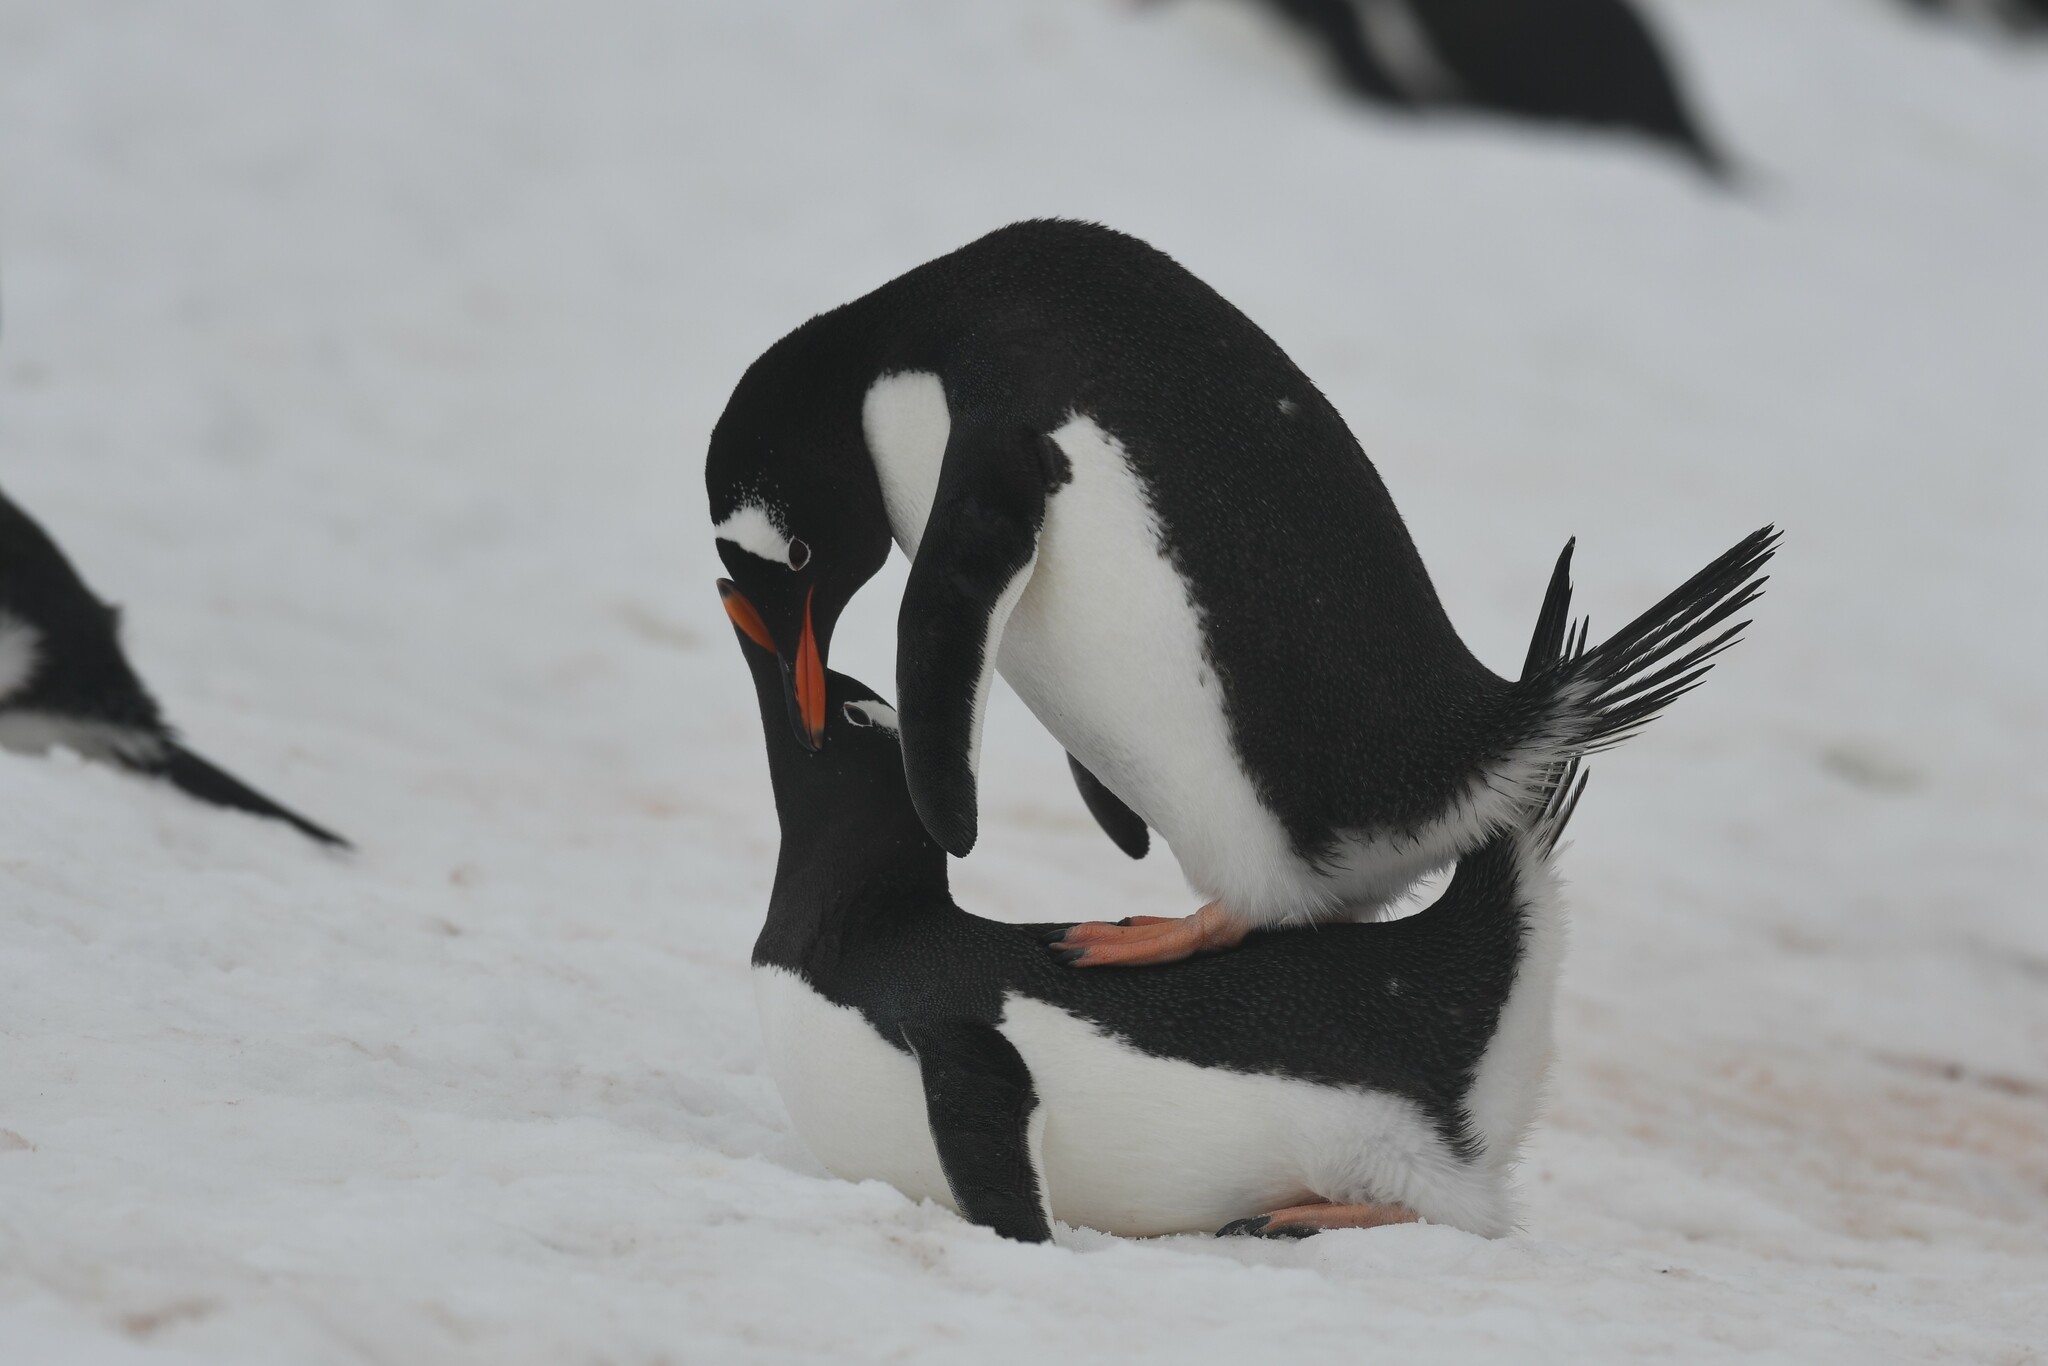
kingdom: Animalia
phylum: Chordata
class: Aves
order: Sphenisciformes
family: Spheniscidae
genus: Pygoscelis
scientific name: Pygoscelis papua
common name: Gentoo penguin
